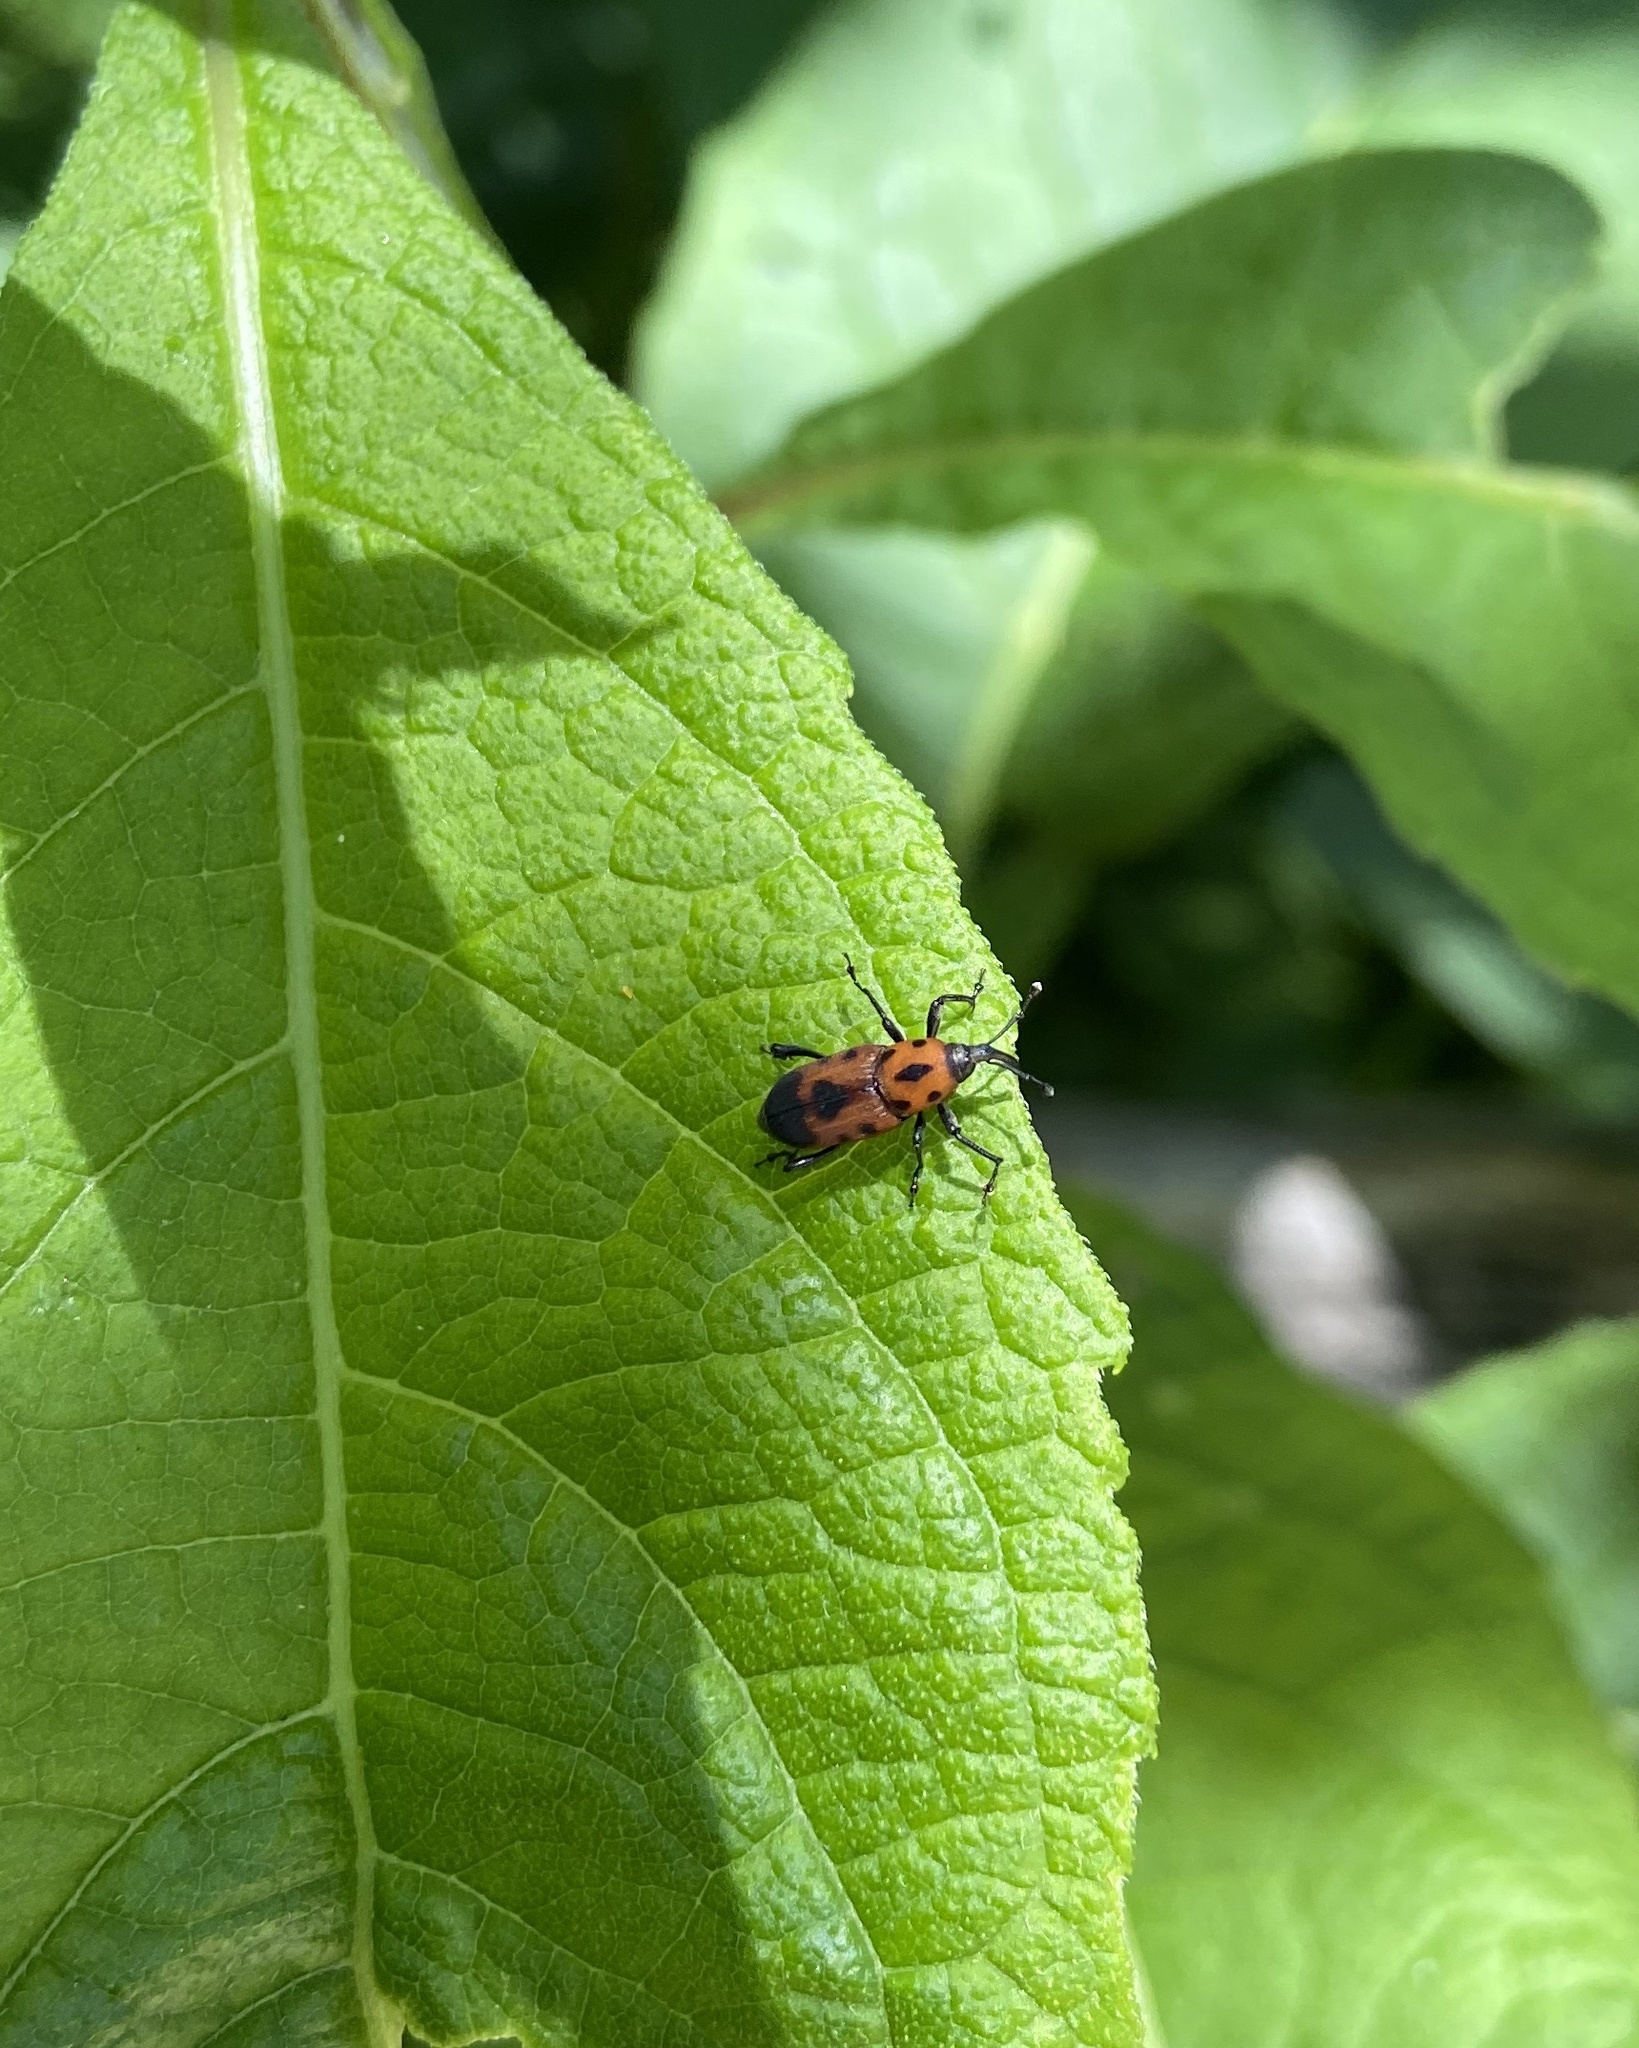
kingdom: Animalia
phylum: Arthropoda
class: Insecta
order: Coleoptera
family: Dryophthoridae
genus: Rhodobaenus
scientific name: Rhodobaenus quinquepunctatus
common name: Cocklebur weevil
